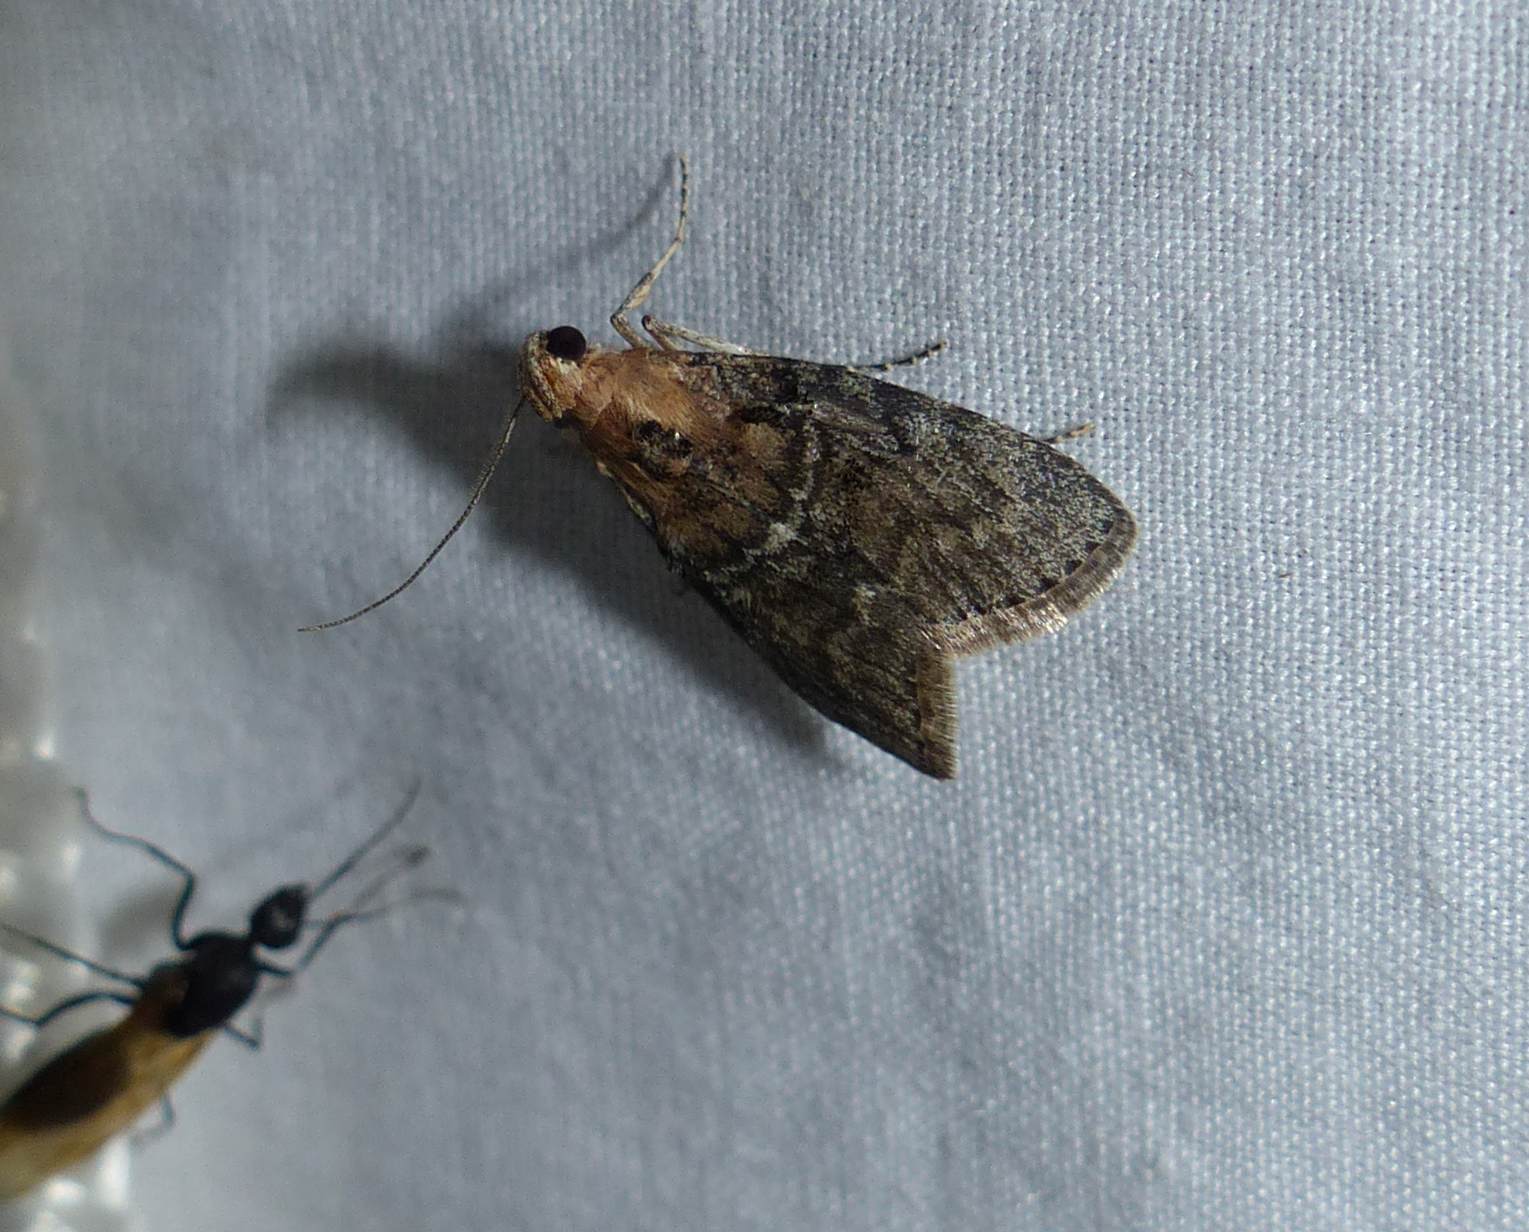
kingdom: Animalia
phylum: Arthropoda
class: Insecta
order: Lepidoptera
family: Pyralidae
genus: Pococera
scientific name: Pococera expandens
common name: Striped oak webworm moth
